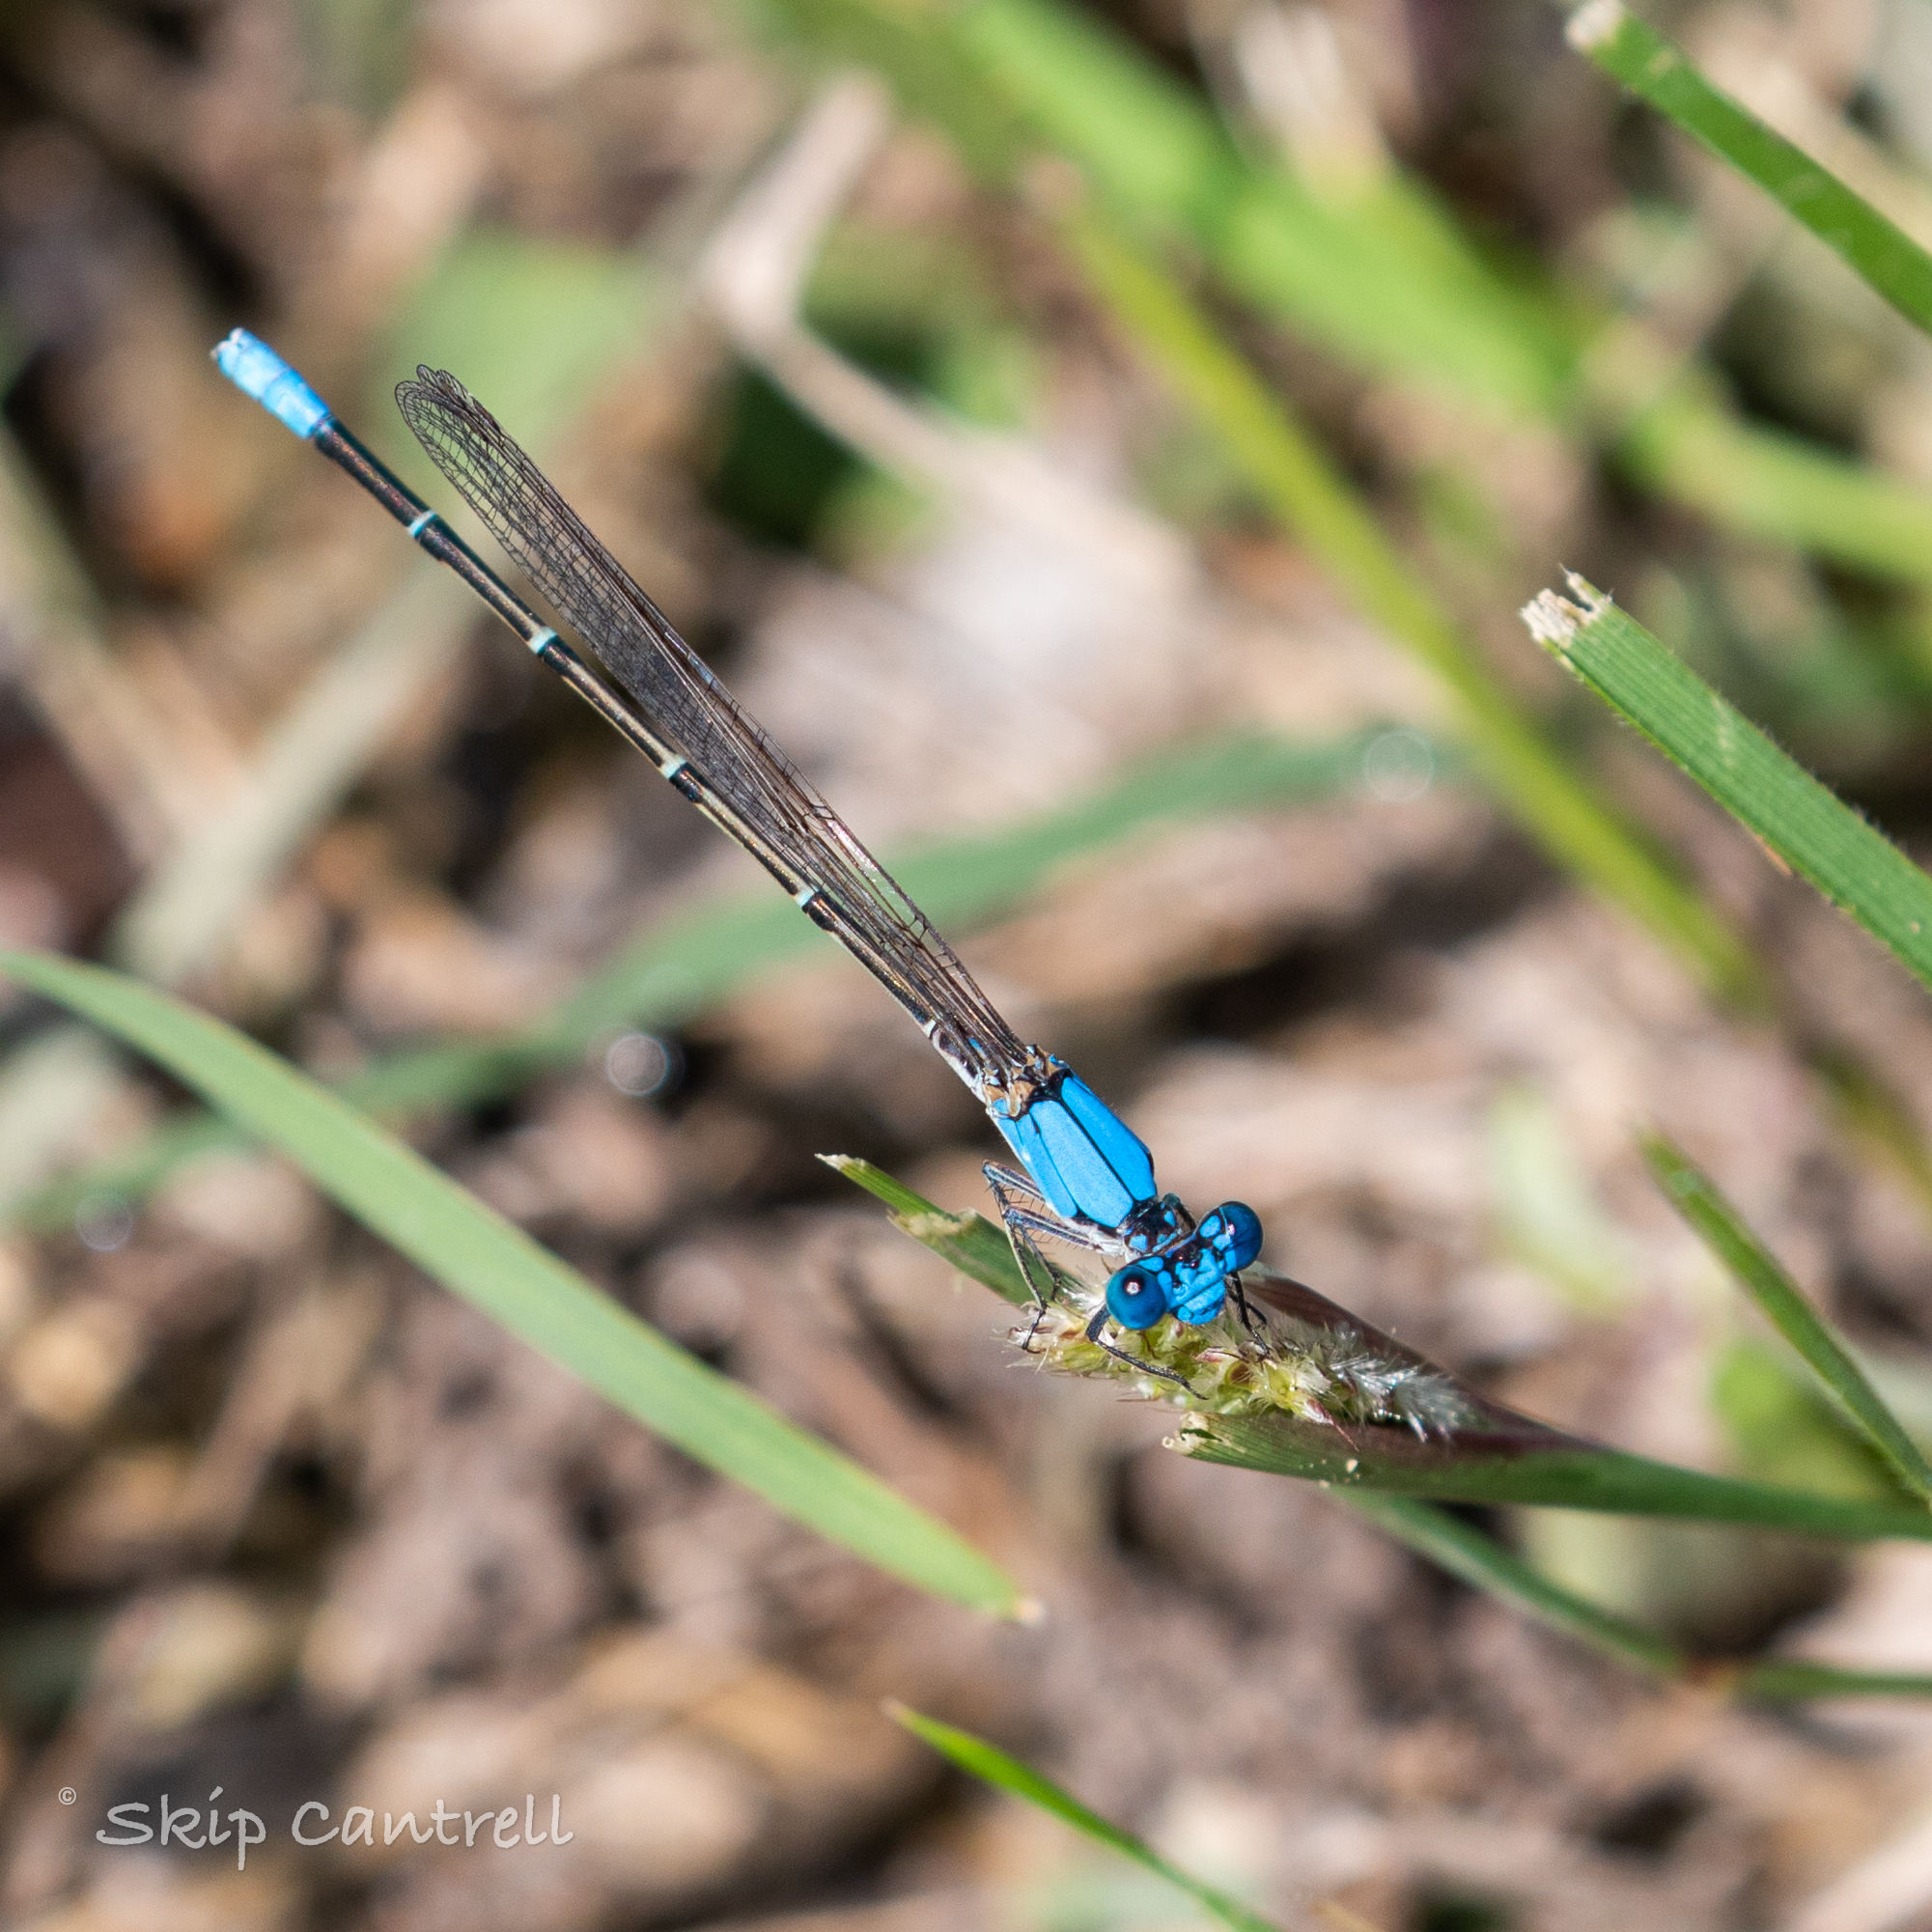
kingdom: Animalia
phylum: Arthropoda
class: Insecta
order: Odonata
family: Coenagrionidae
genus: Argia
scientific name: Argia apicalis
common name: Blue-fronted dancer
